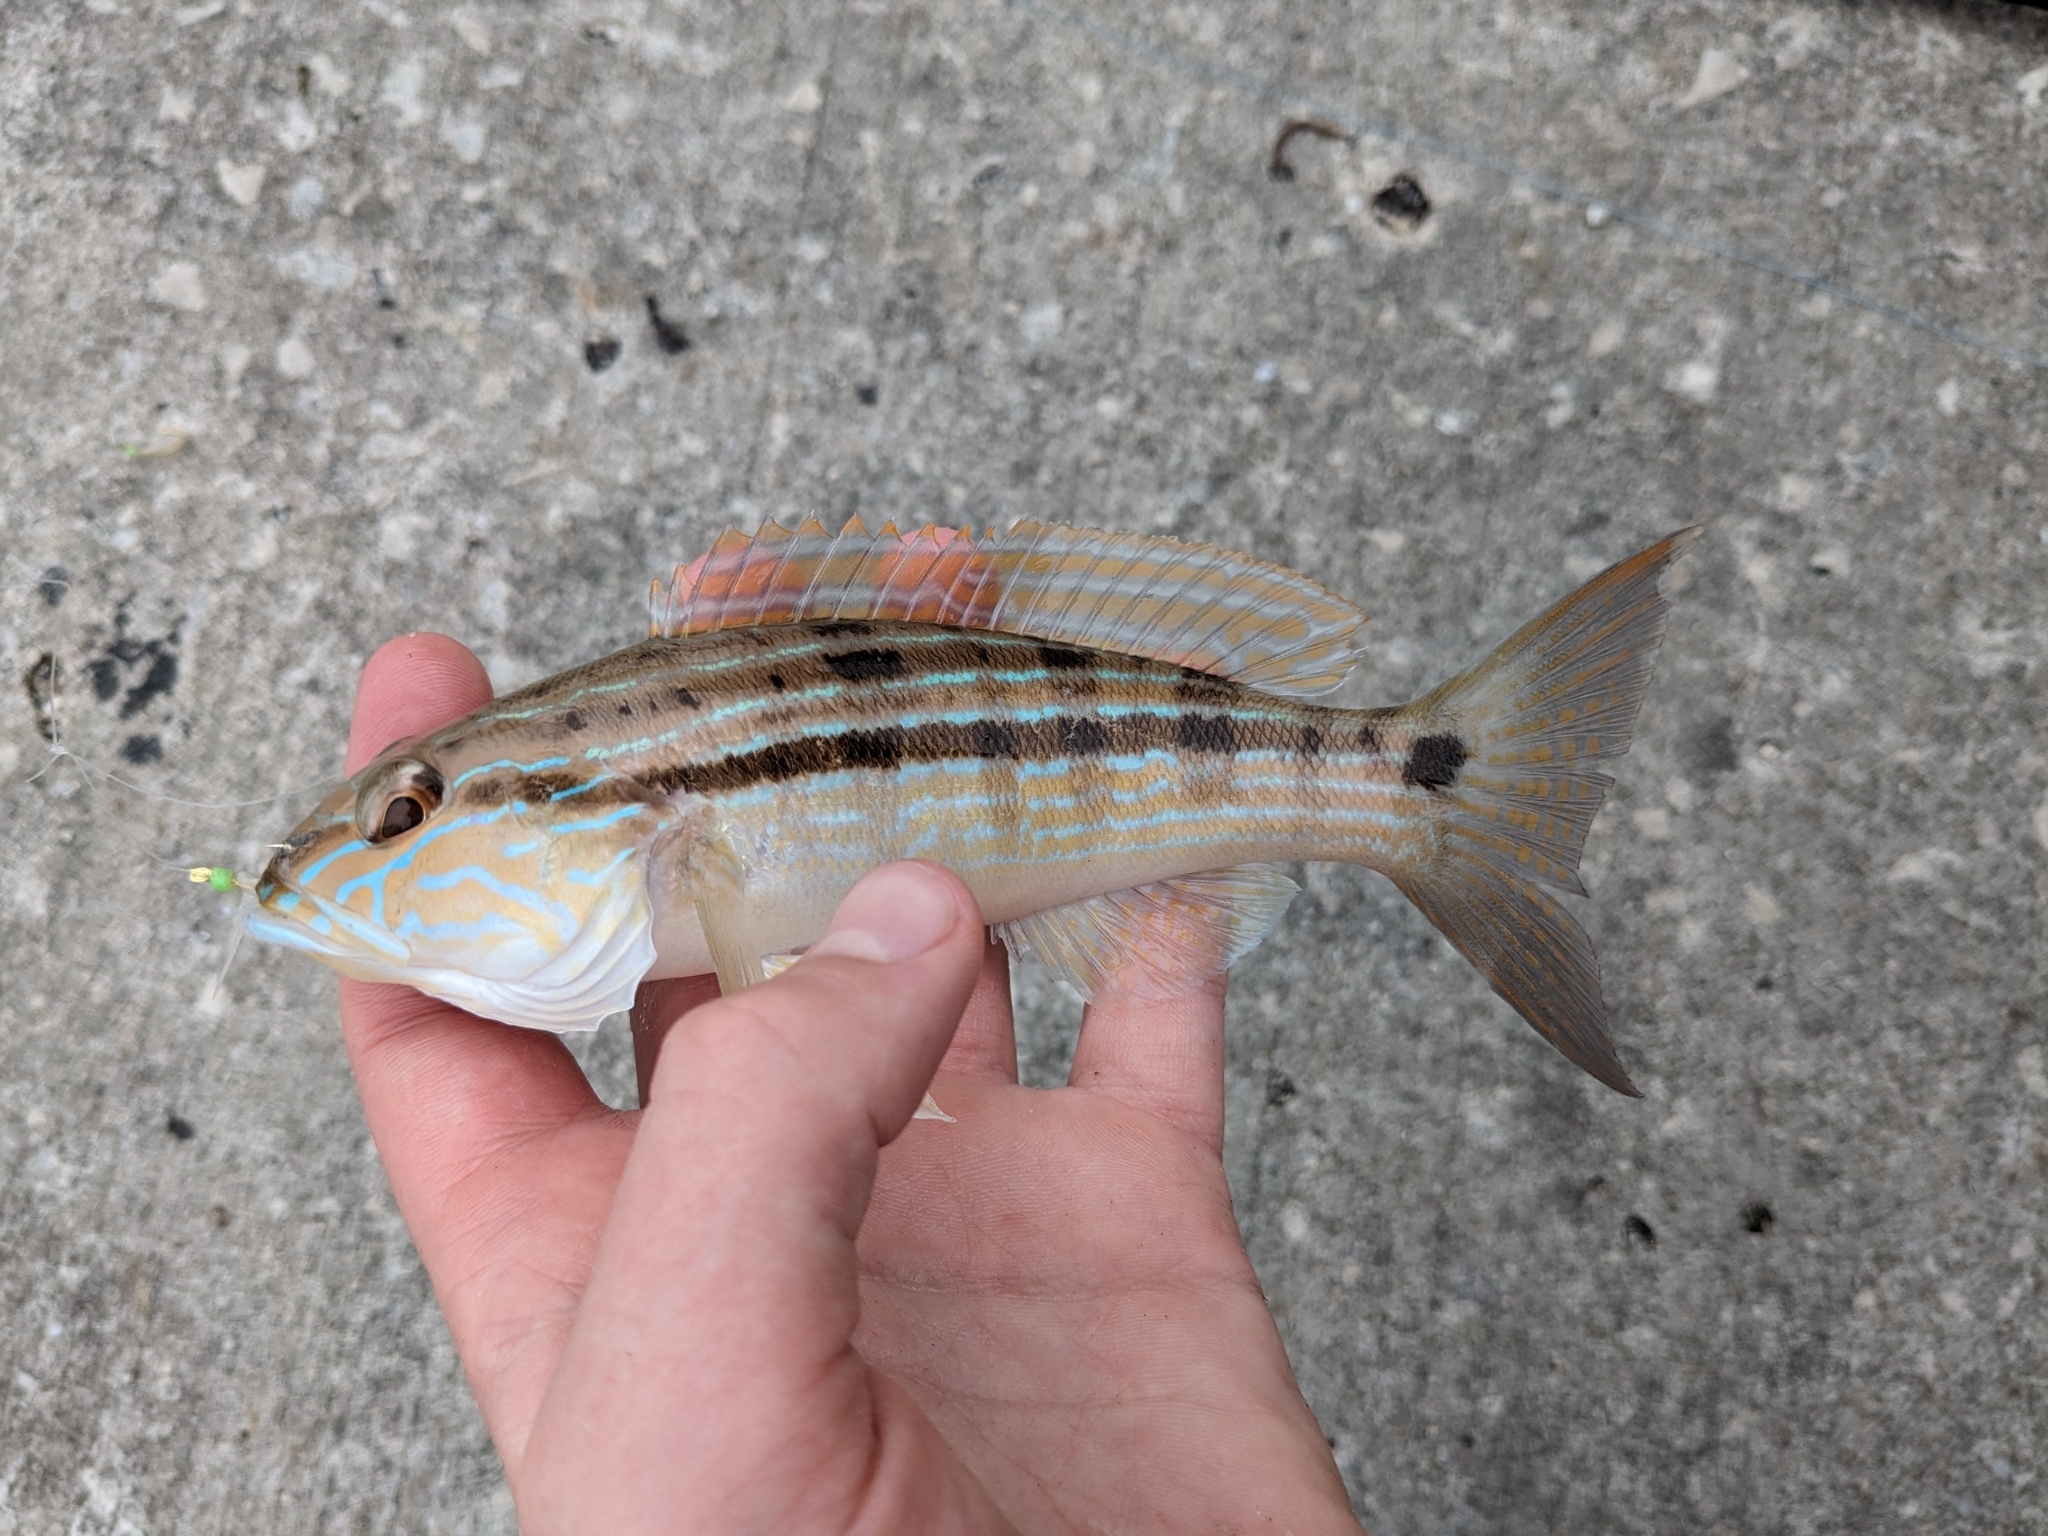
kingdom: Animalia
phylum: Chordata
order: Perciformes
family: Serranidae
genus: Diplectrum
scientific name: Diplectrum formosum
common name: Sand perch
